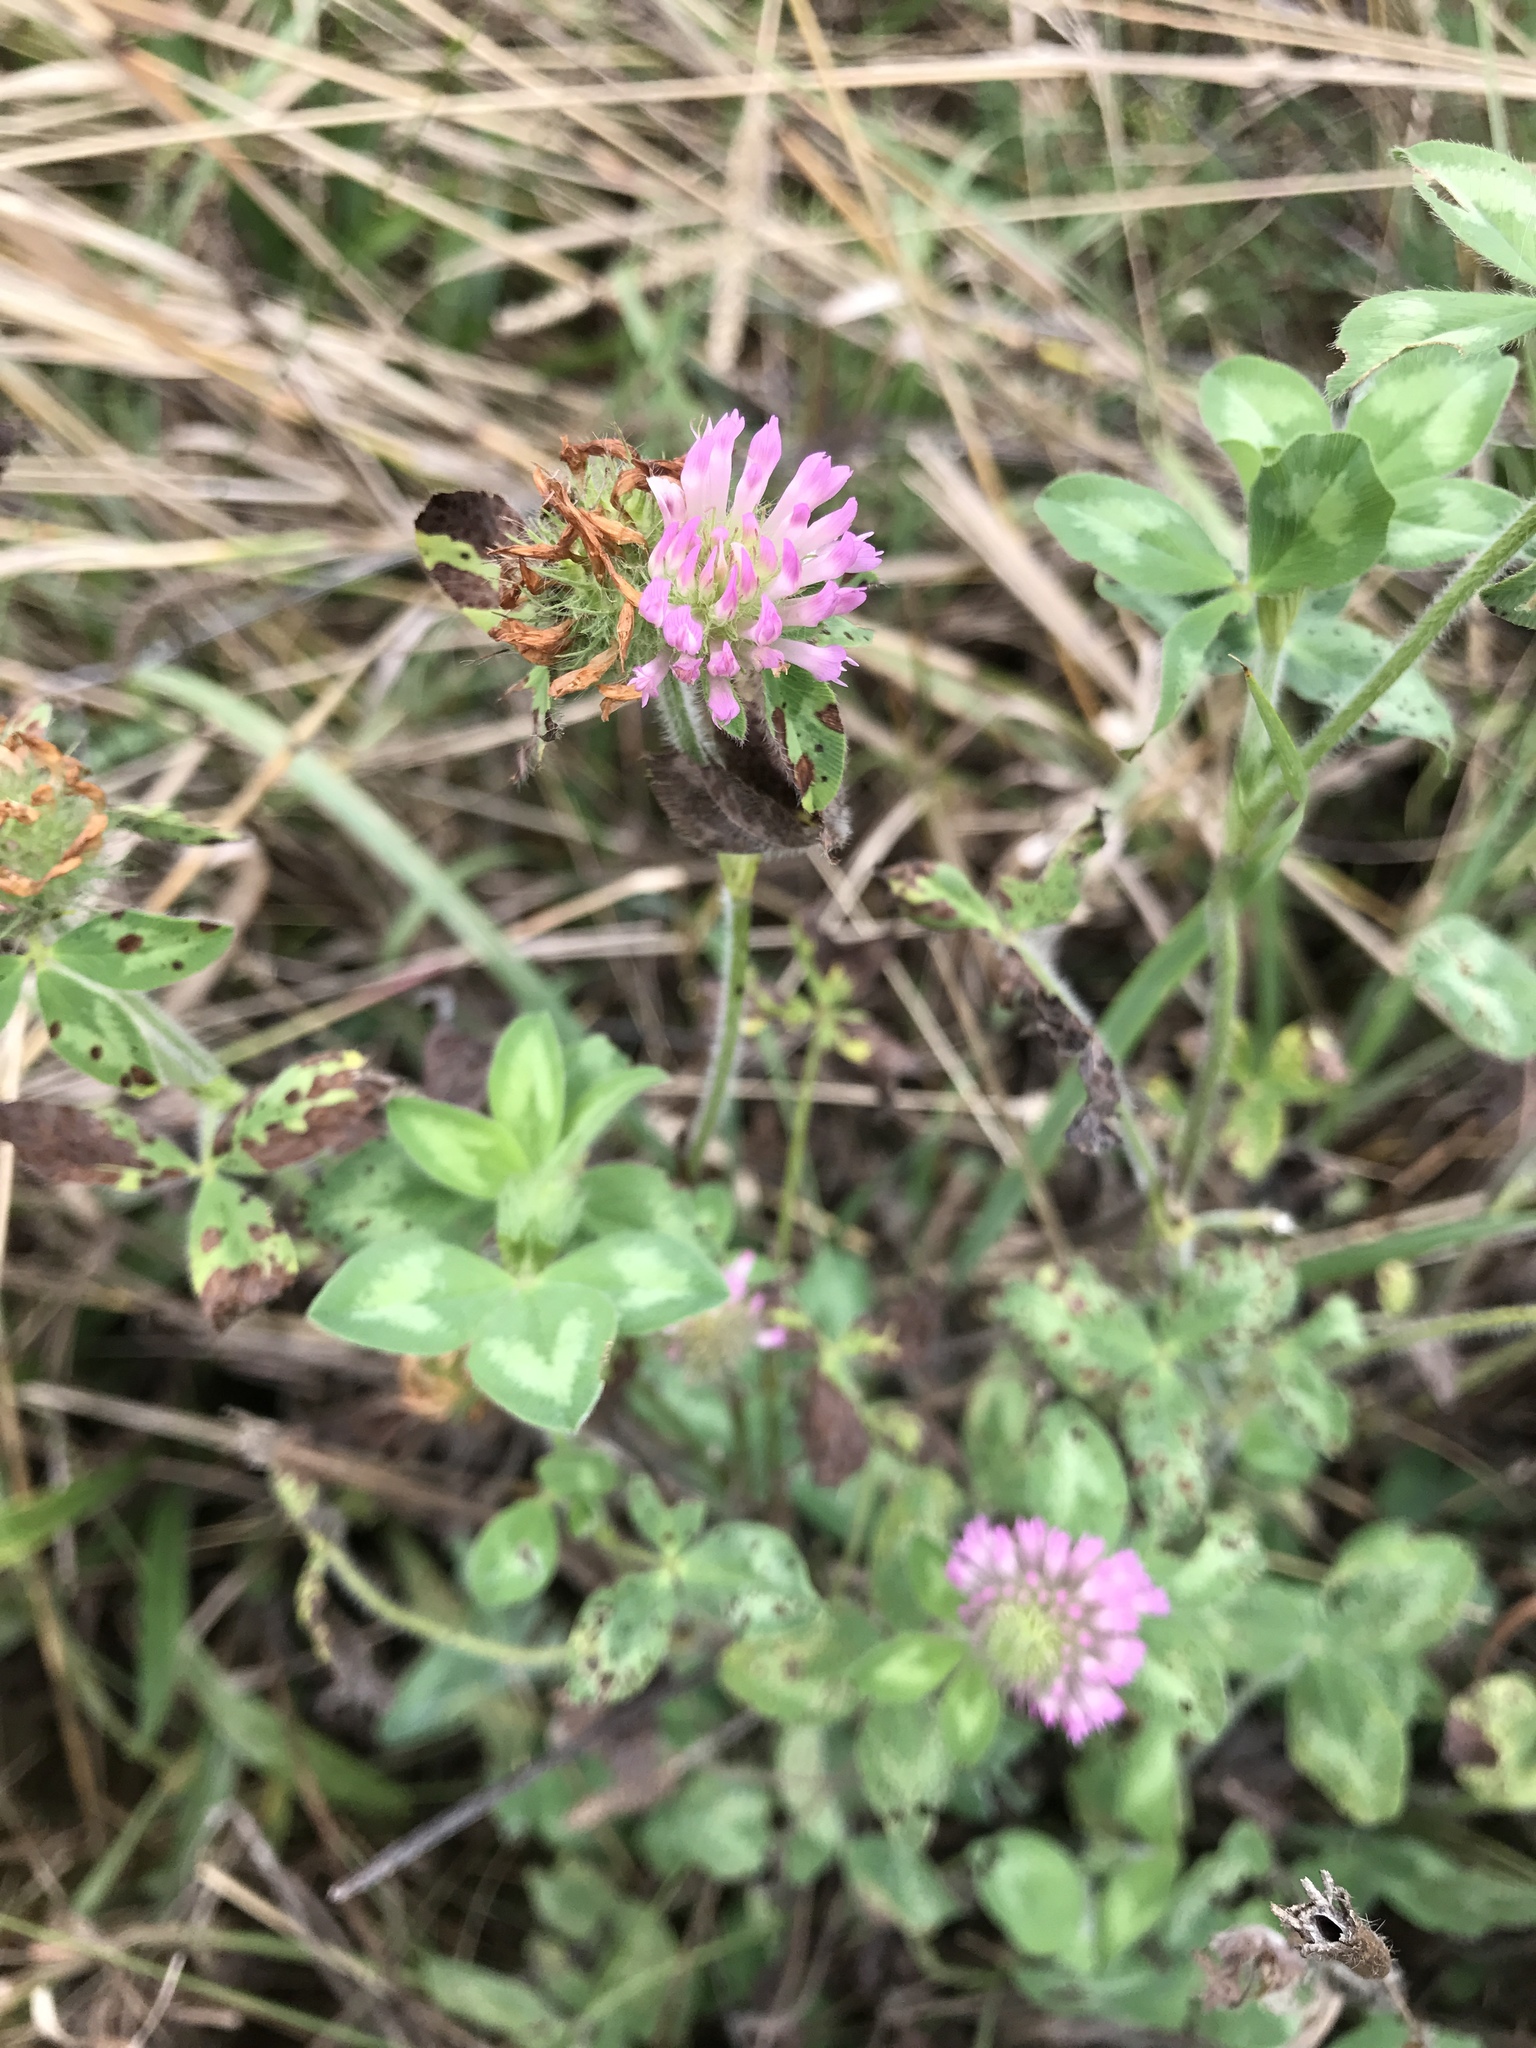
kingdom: Plantae
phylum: Tracheophyta
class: Magnoliopsida
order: Fabales
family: Fabaceae
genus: Trifolium
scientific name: Trifolium pratense
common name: Red clover
